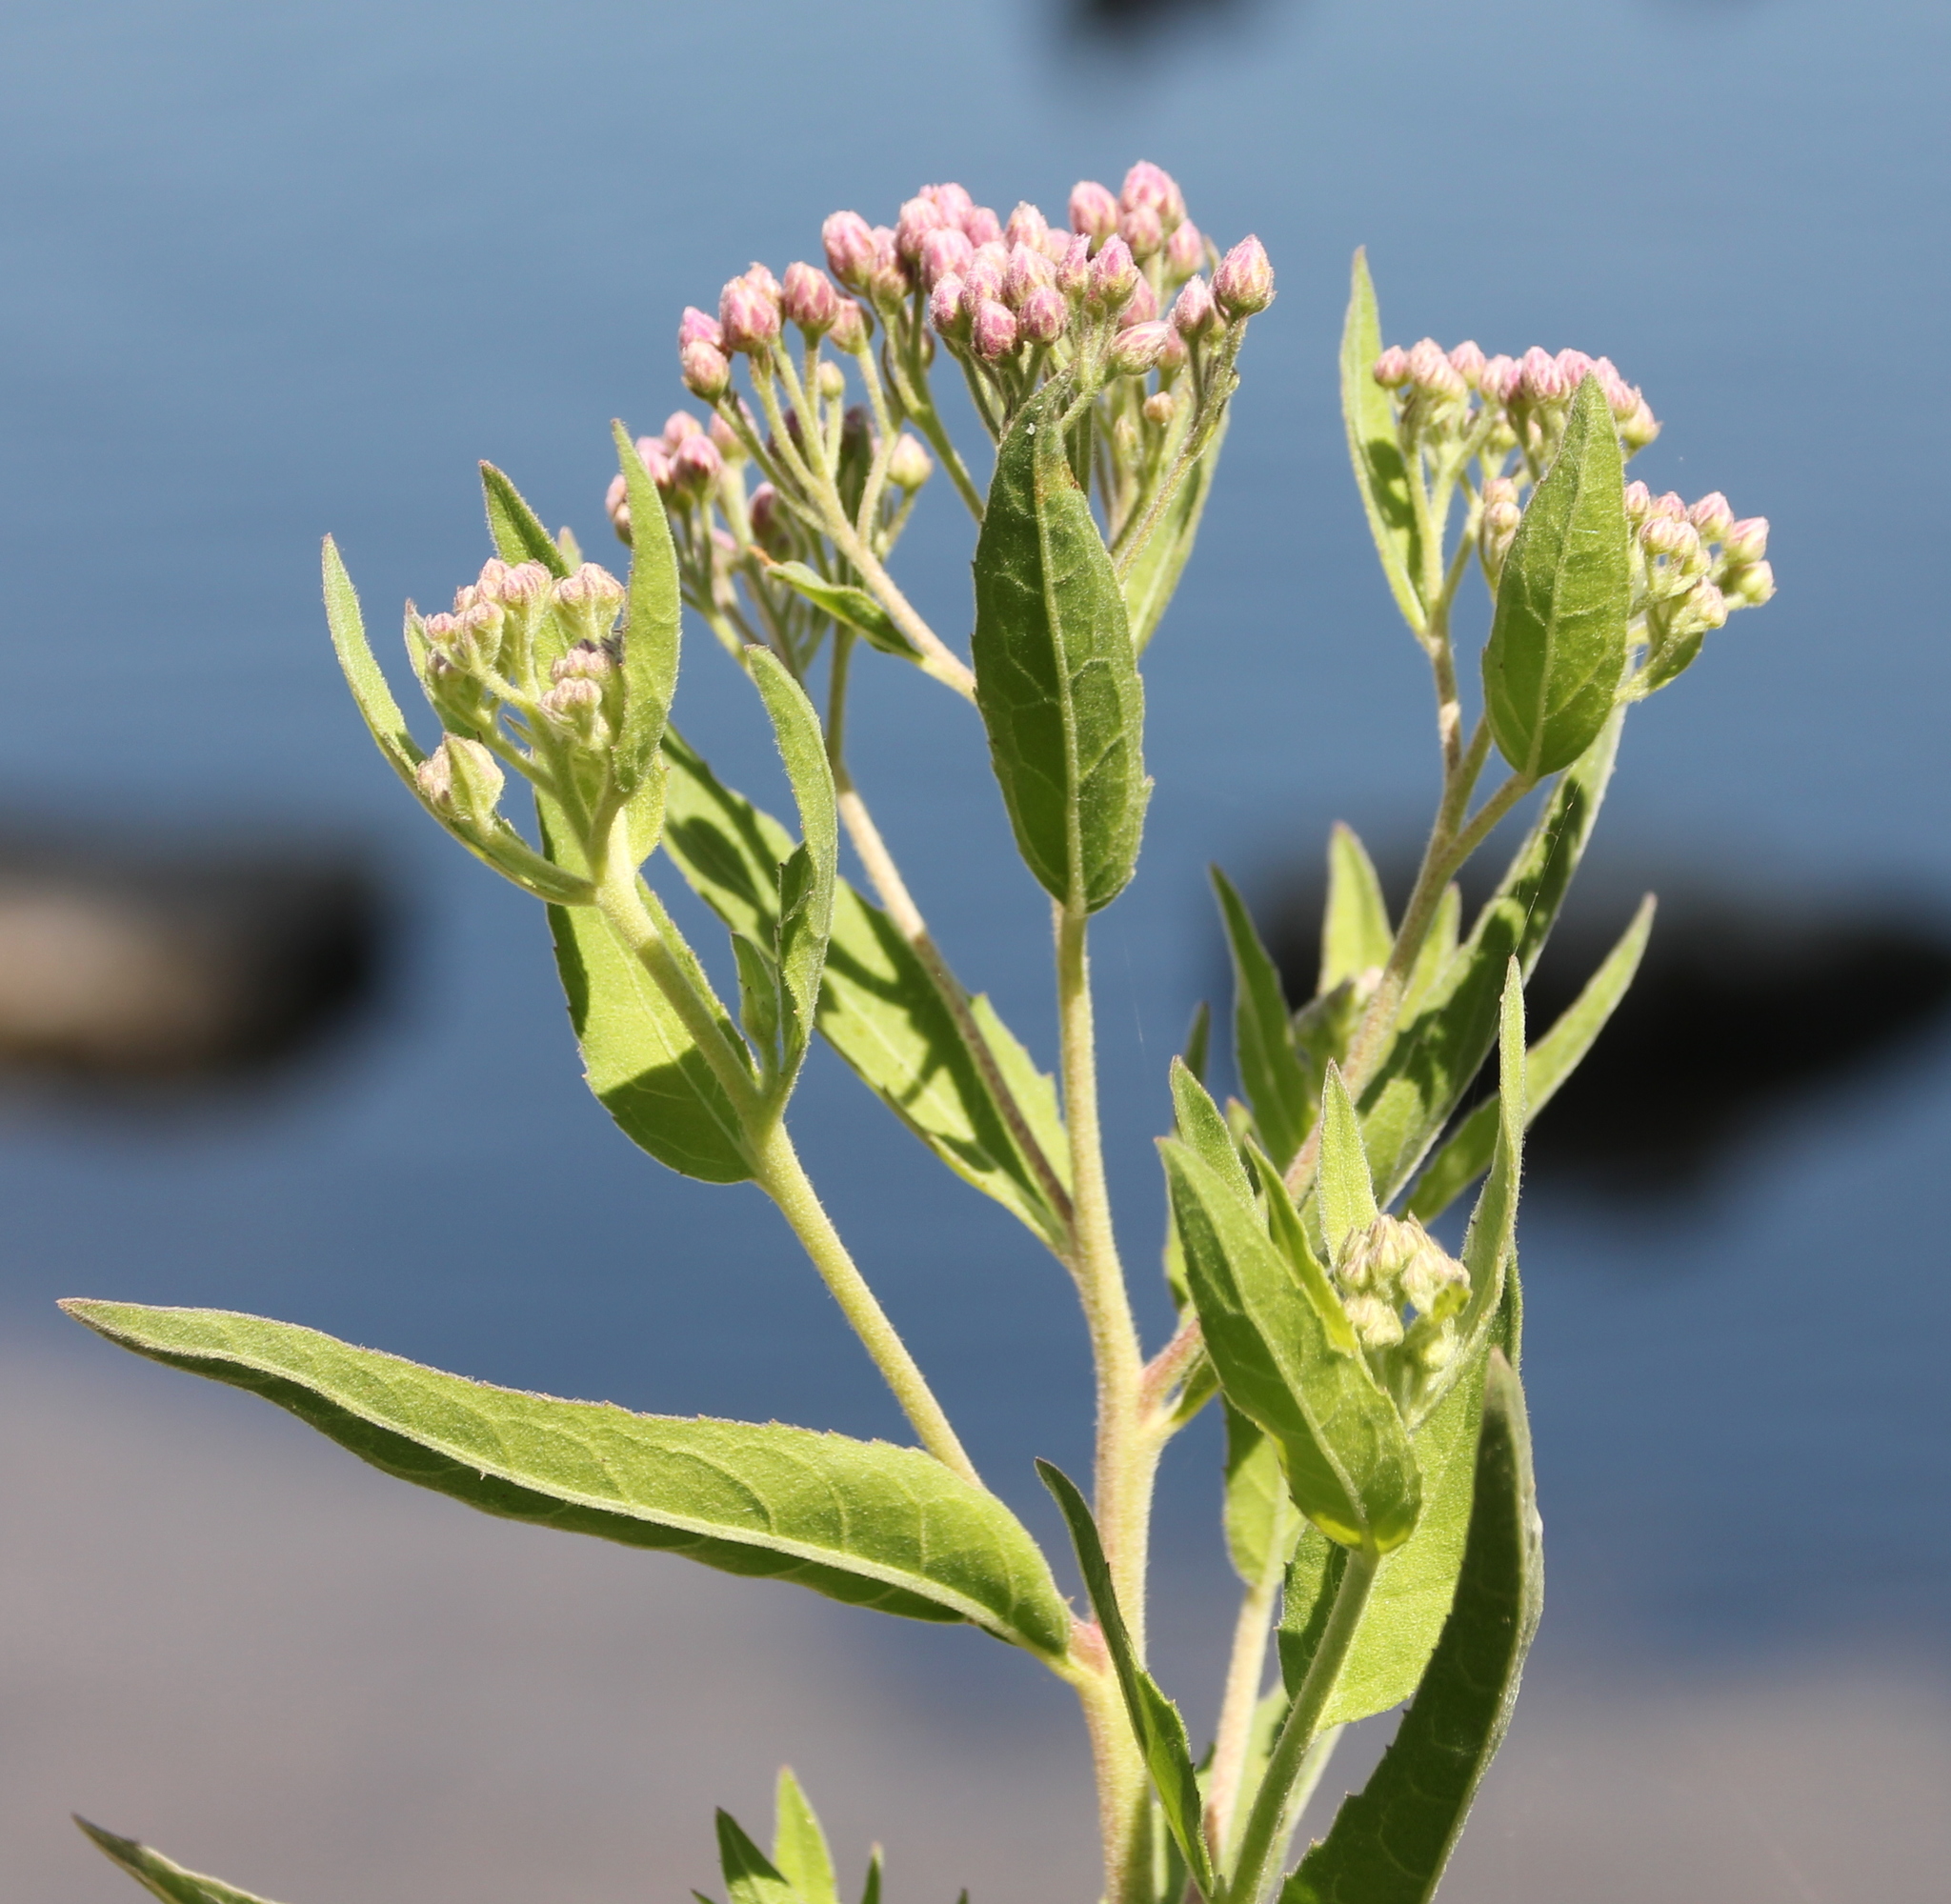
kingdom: Plantae
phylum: Tracheophyta
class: Magnoliopsida
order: Asterales
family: Asteraceae
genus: Pluchea
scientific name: Pluchea odorata
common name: Saltmarsh fleabane
